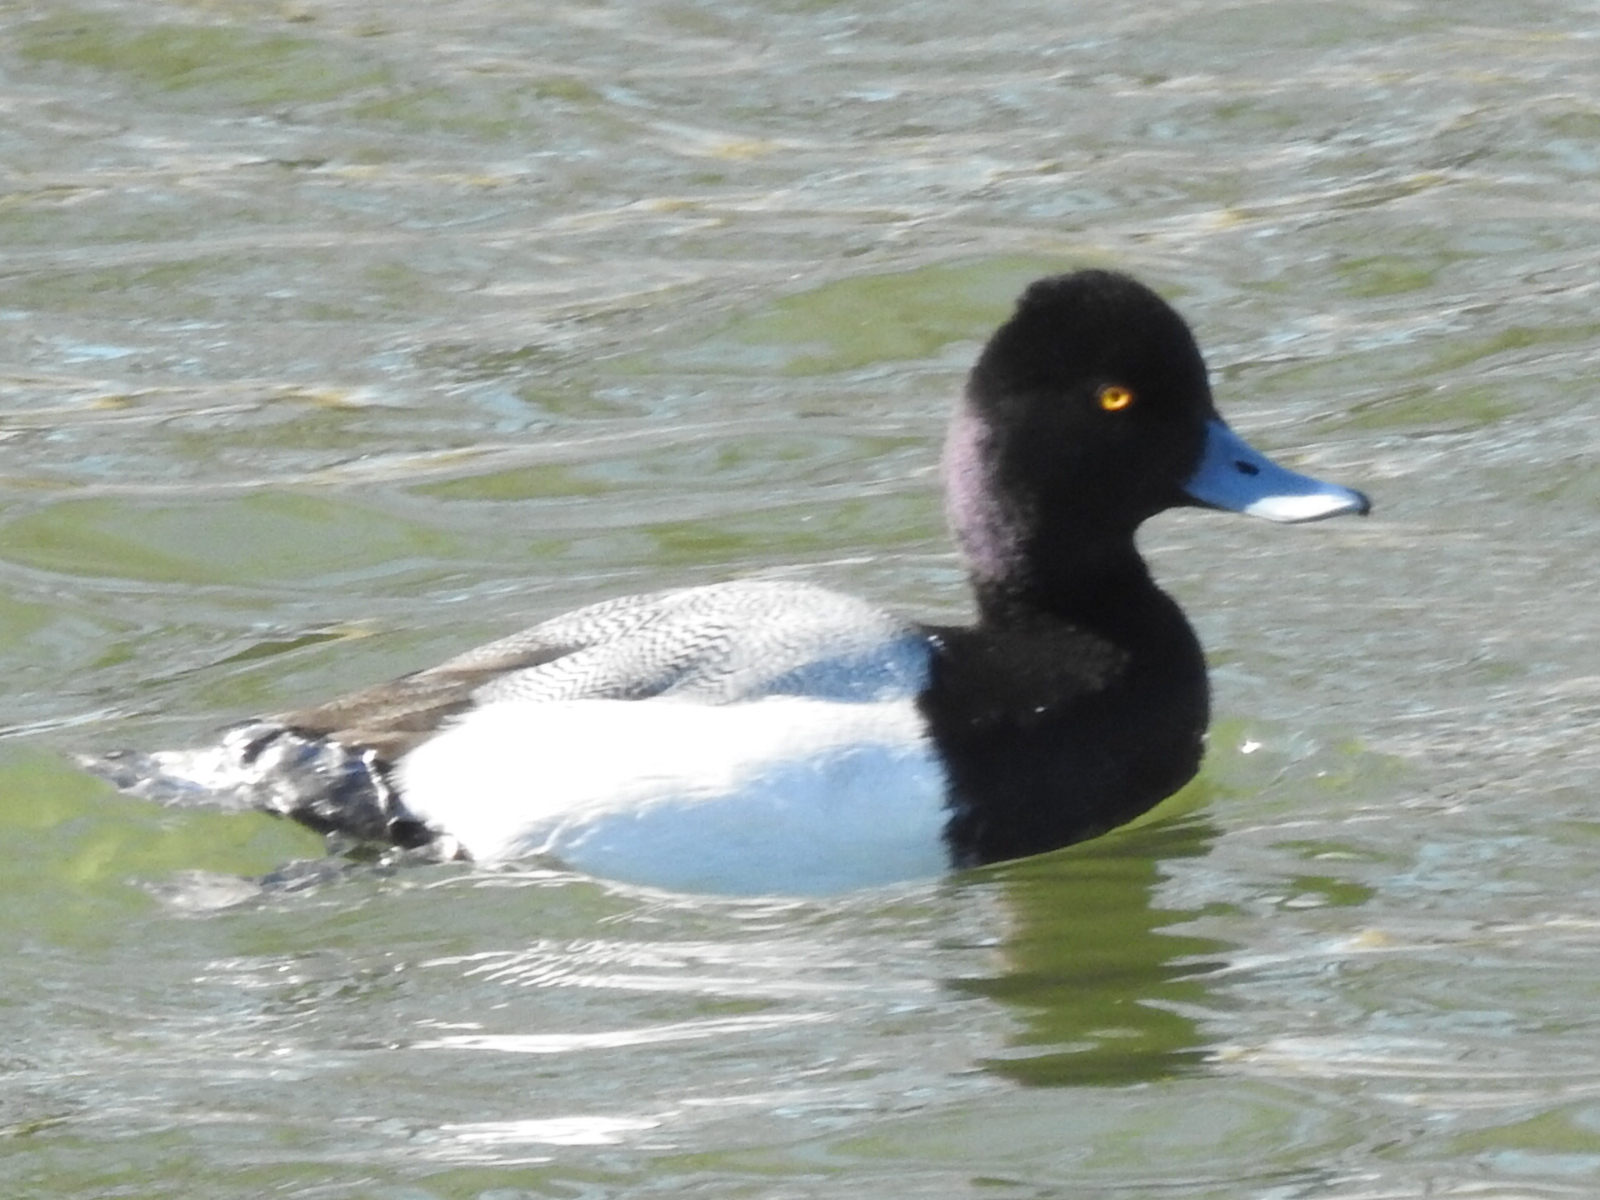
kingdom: Animalia
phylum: Chordata
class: Aves
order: Anseriformes
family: Anatidae
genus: Aythya
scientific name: Aythya affinis
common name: Lesser scaup
